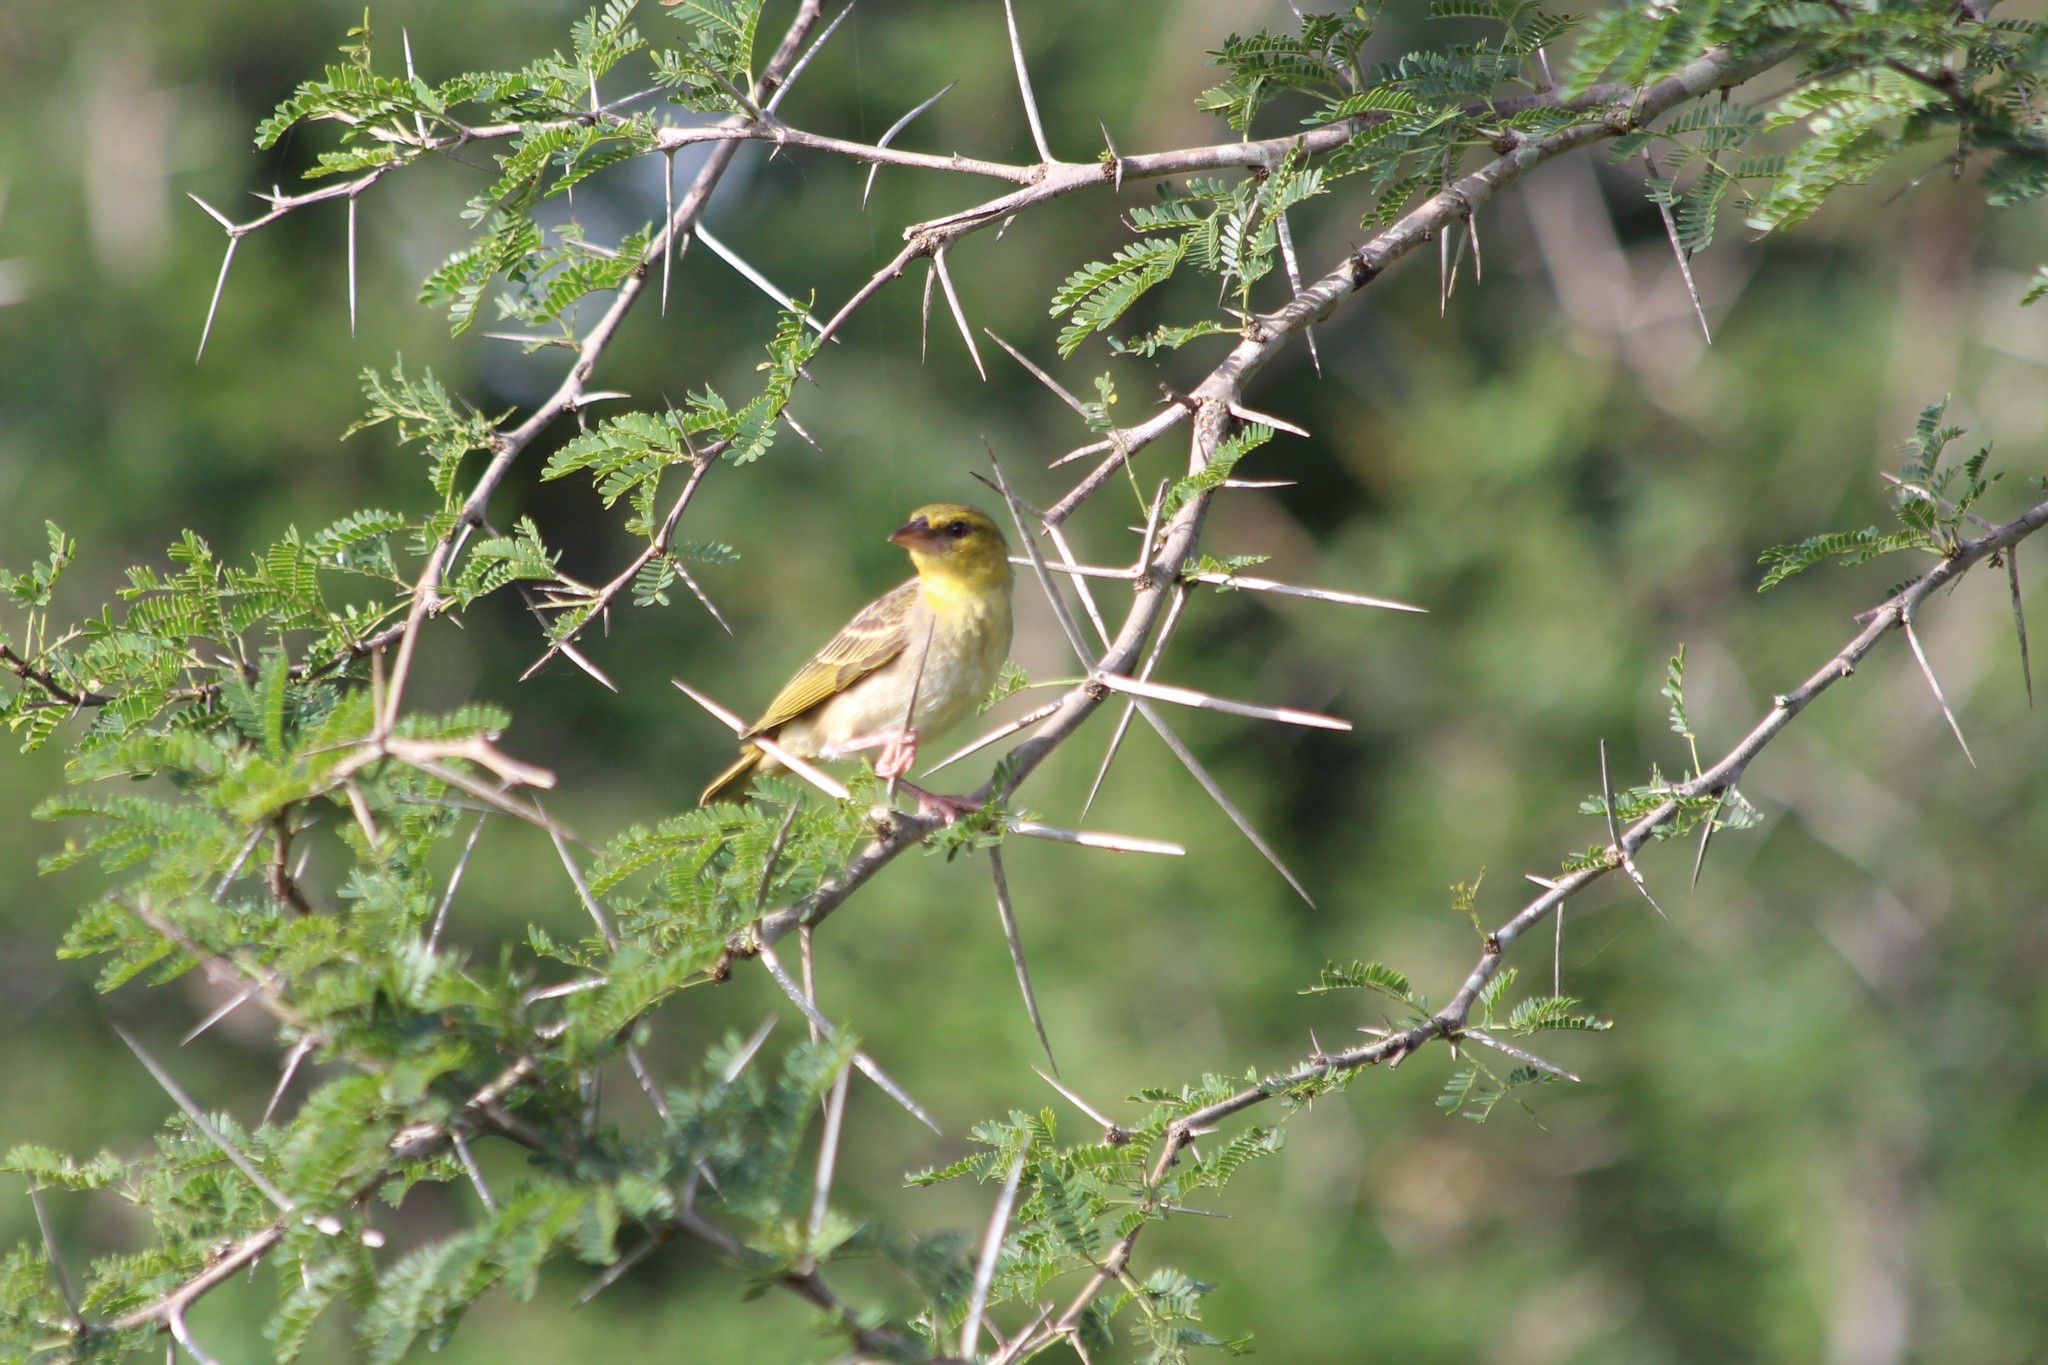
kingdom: Animalia
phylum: Chordata
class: Aves
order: Passeriformes
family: Ploceidae
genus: Ploceus
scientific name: Ploceus
